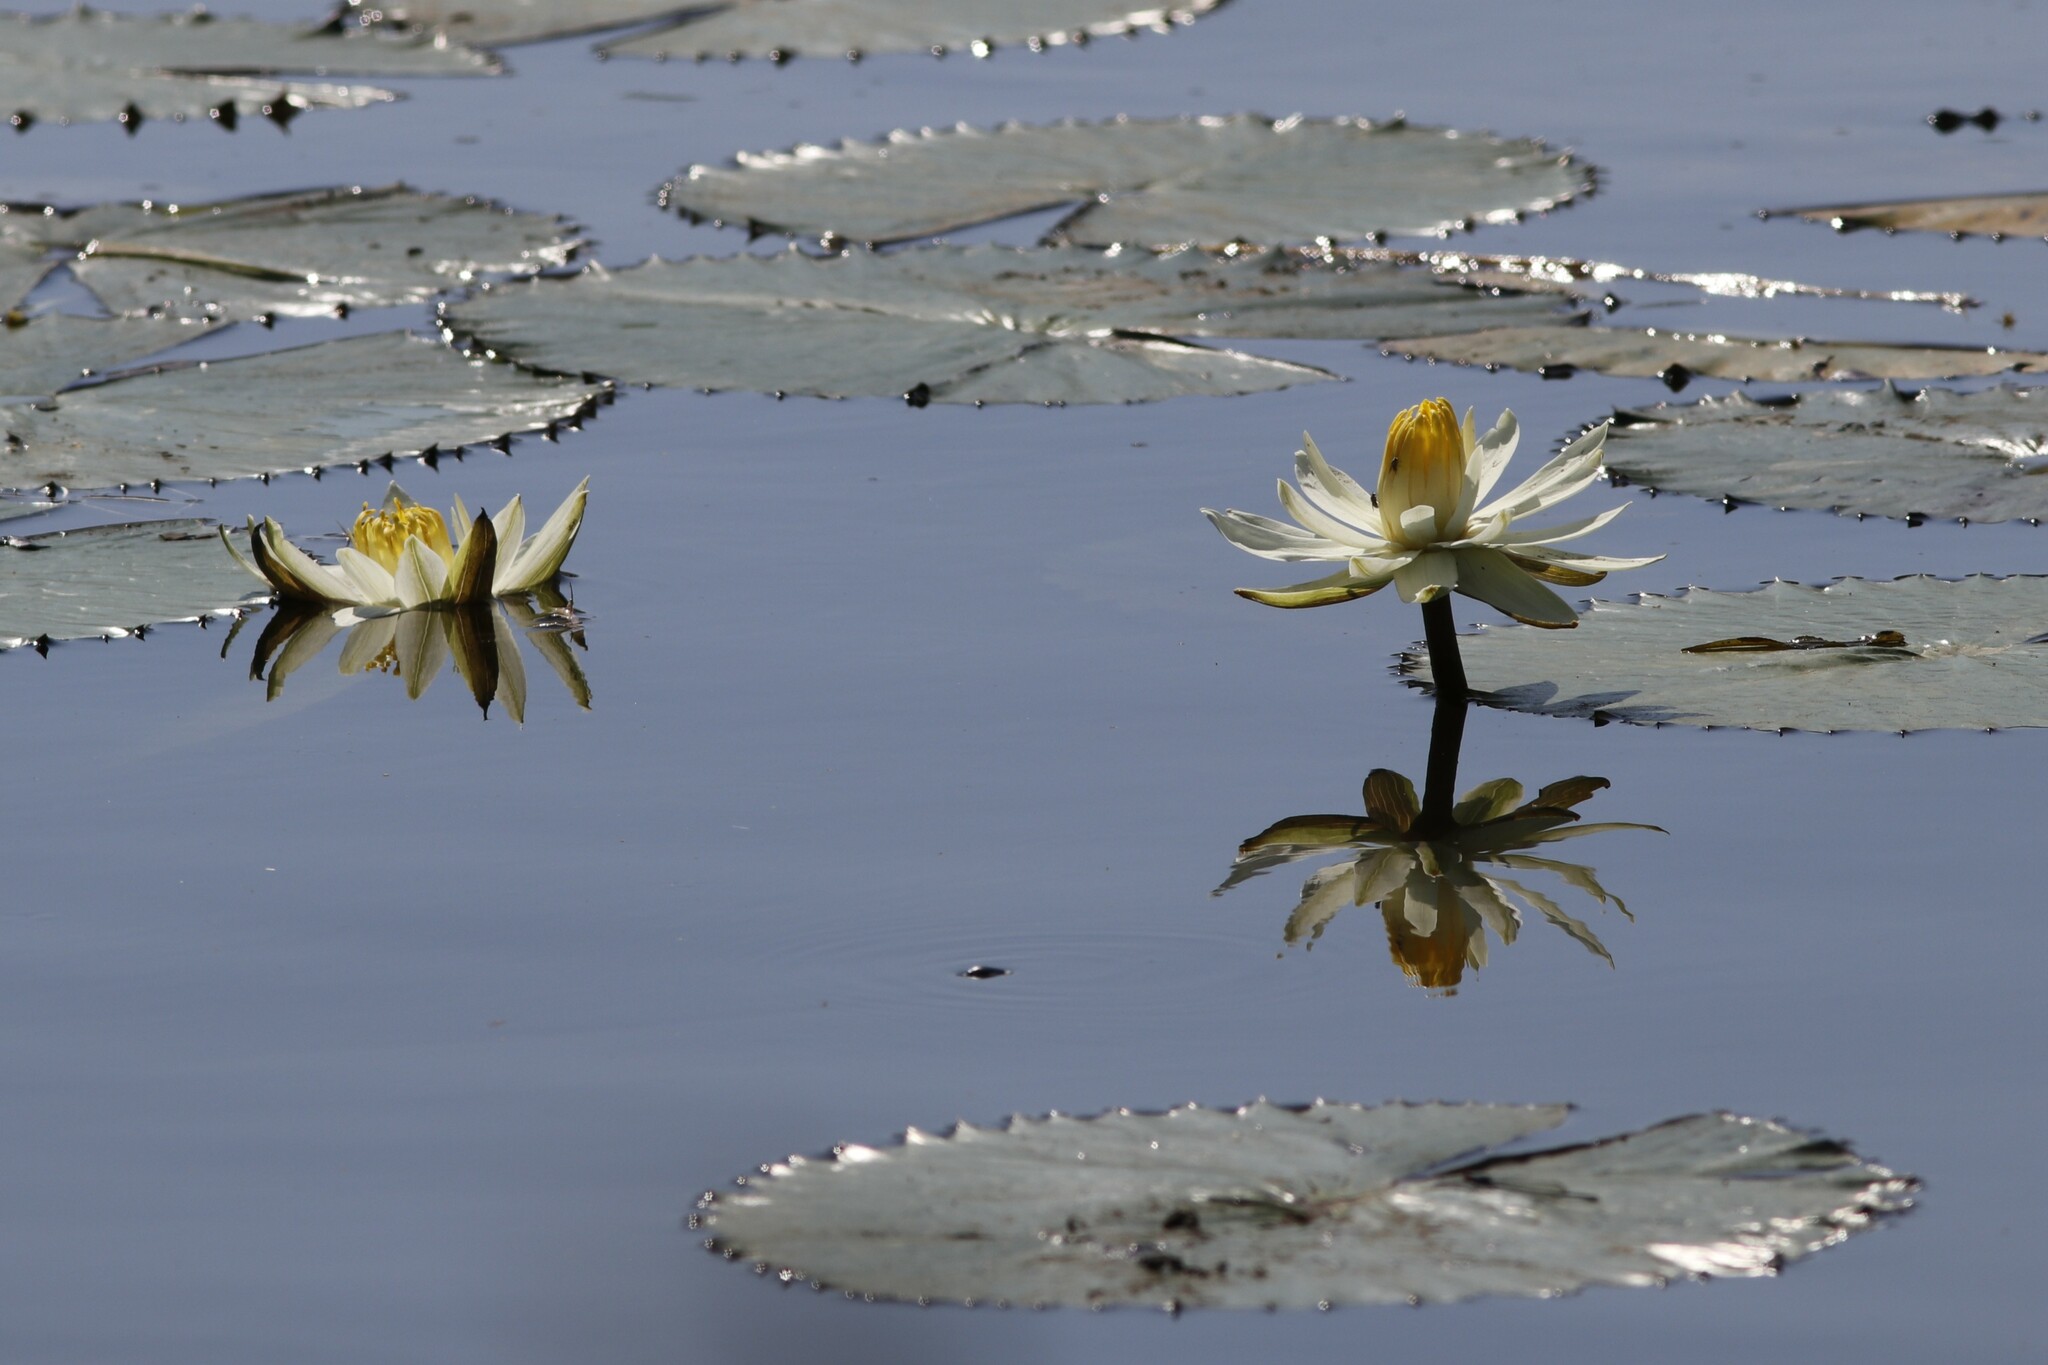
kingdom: Plantae
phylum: Tracheophyta
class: Magnoliopsida
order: Nymphaeales
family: Nymphaeaceae
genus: Nymphaea
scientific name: Nymphaea lotus
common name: White egyptian lotus
